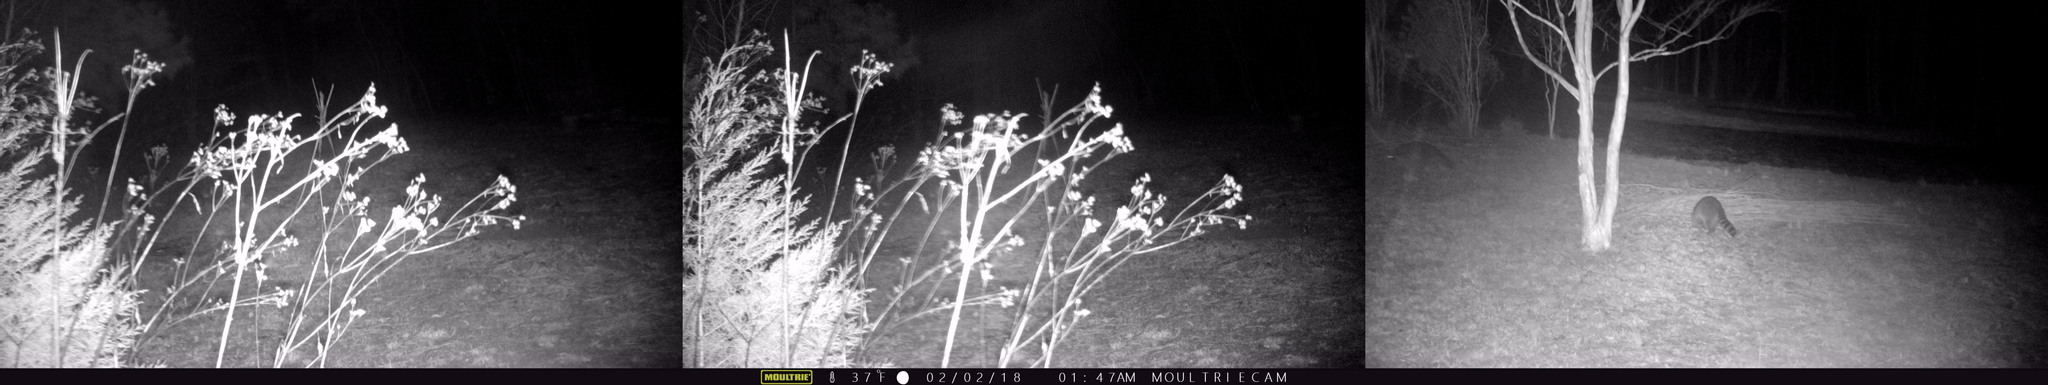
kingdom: Animalia
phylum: Chordata
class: Mammalia
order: Carnivora
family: Procyonidae
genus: Procyon
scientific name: Procyon lotor
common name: Raccoon
